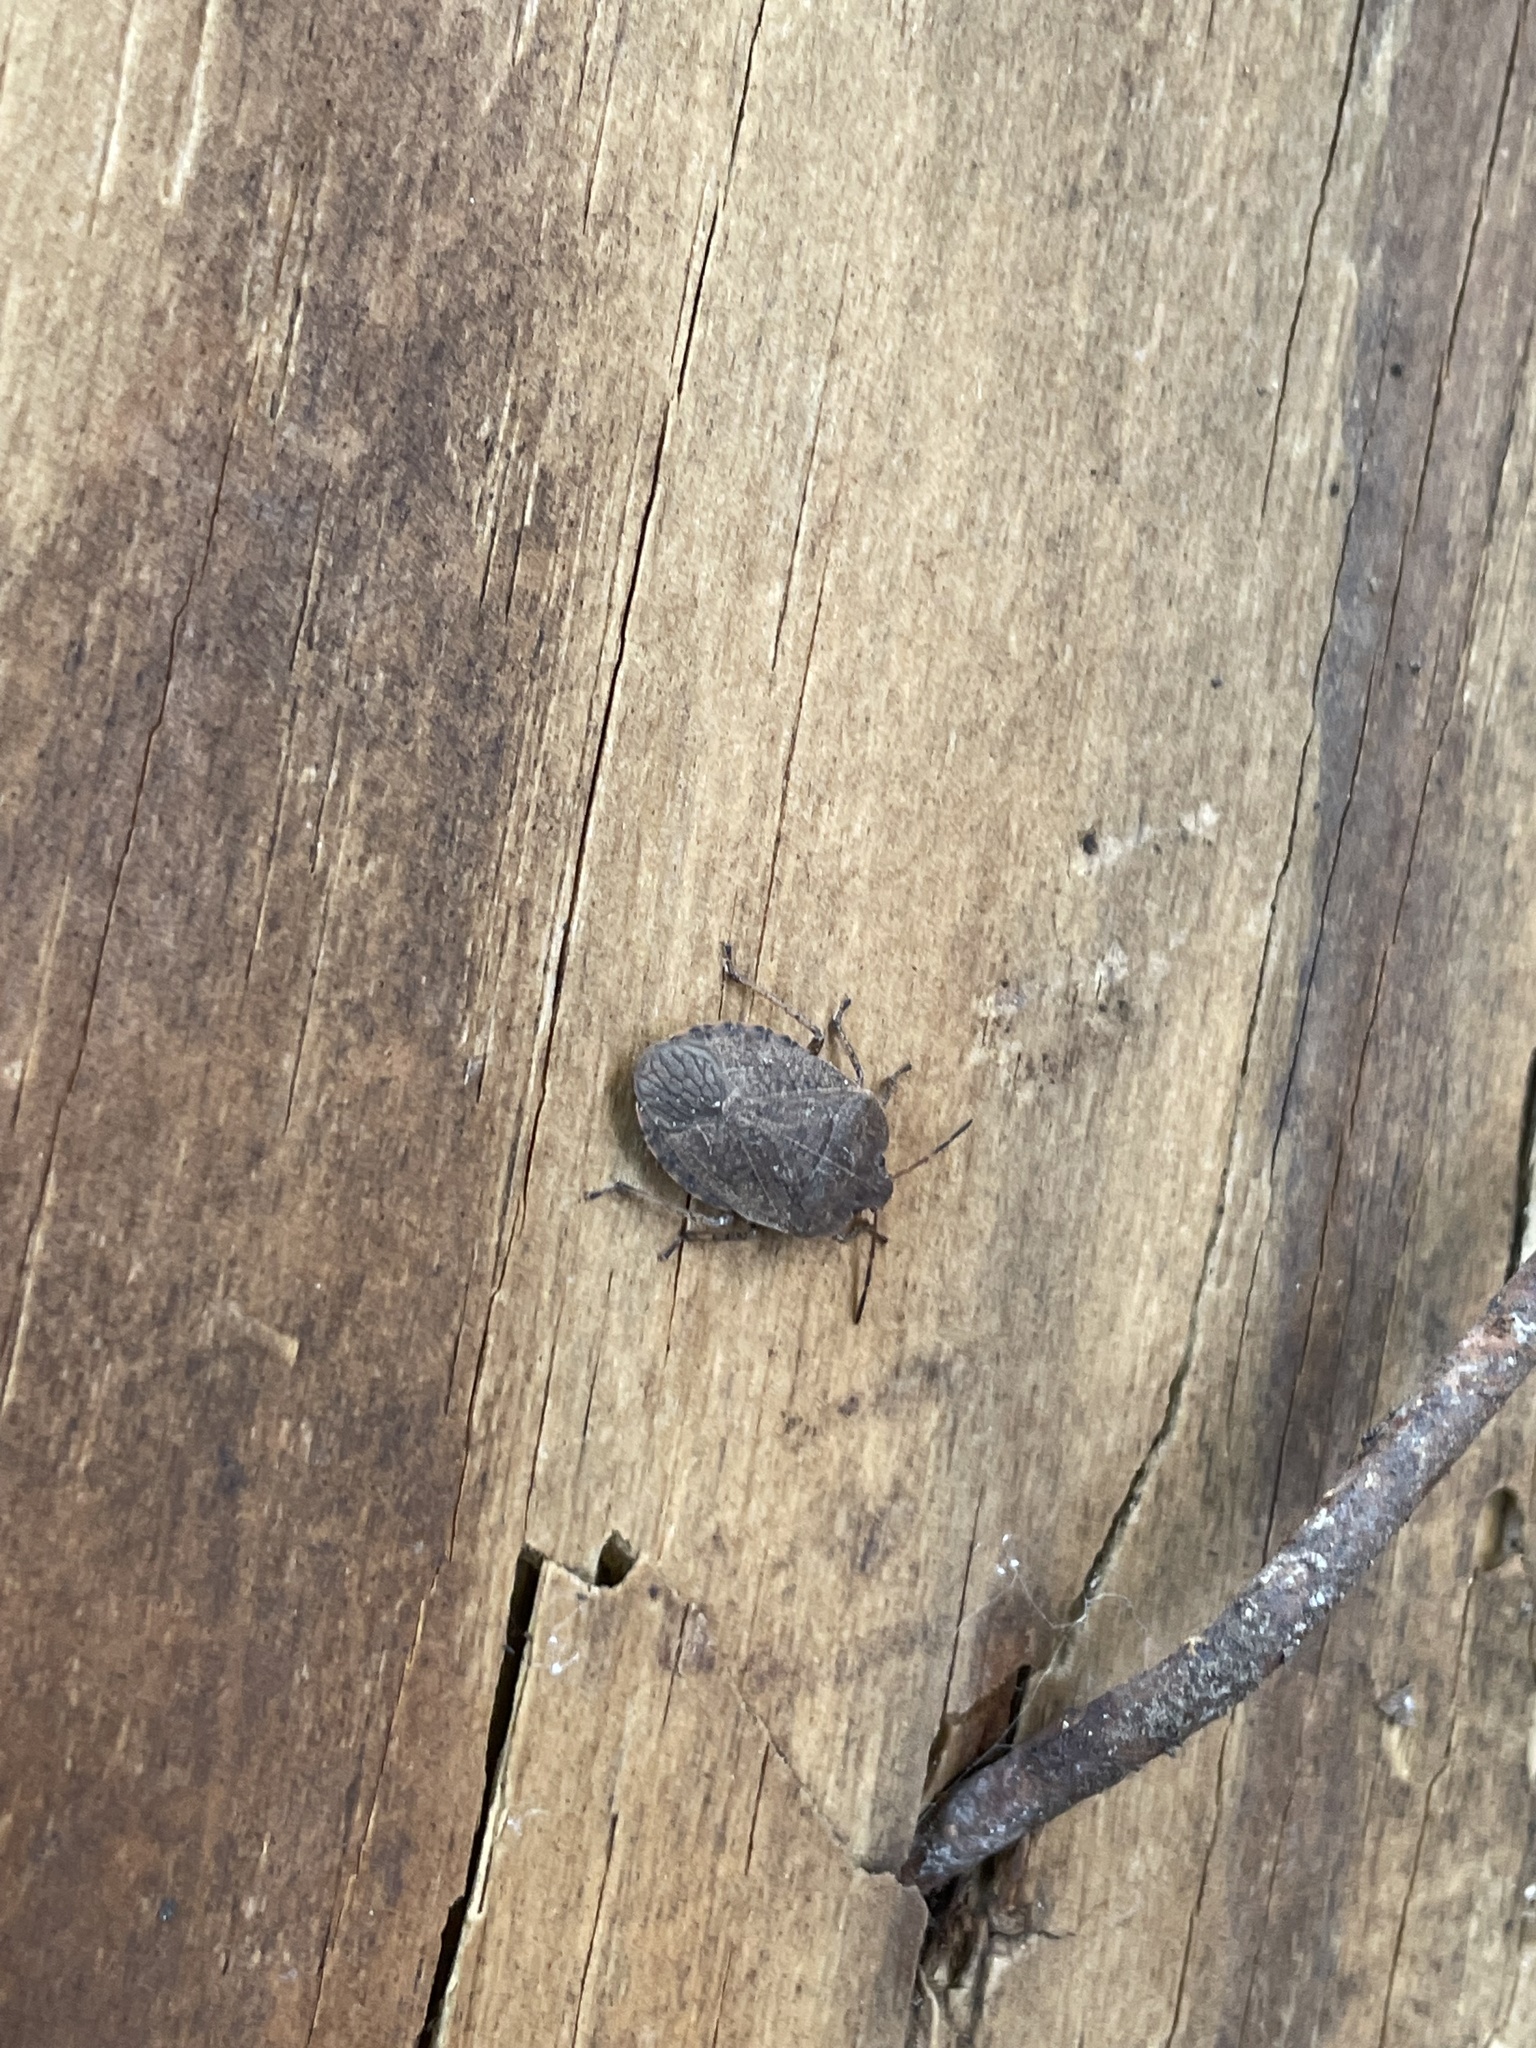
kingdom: Animalia
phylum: Arthropoda
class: Insecta
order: Hemiptera
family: Pentatomidae
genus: Menecles
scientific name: Menecles insertus
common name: Elf shoe stink bug
